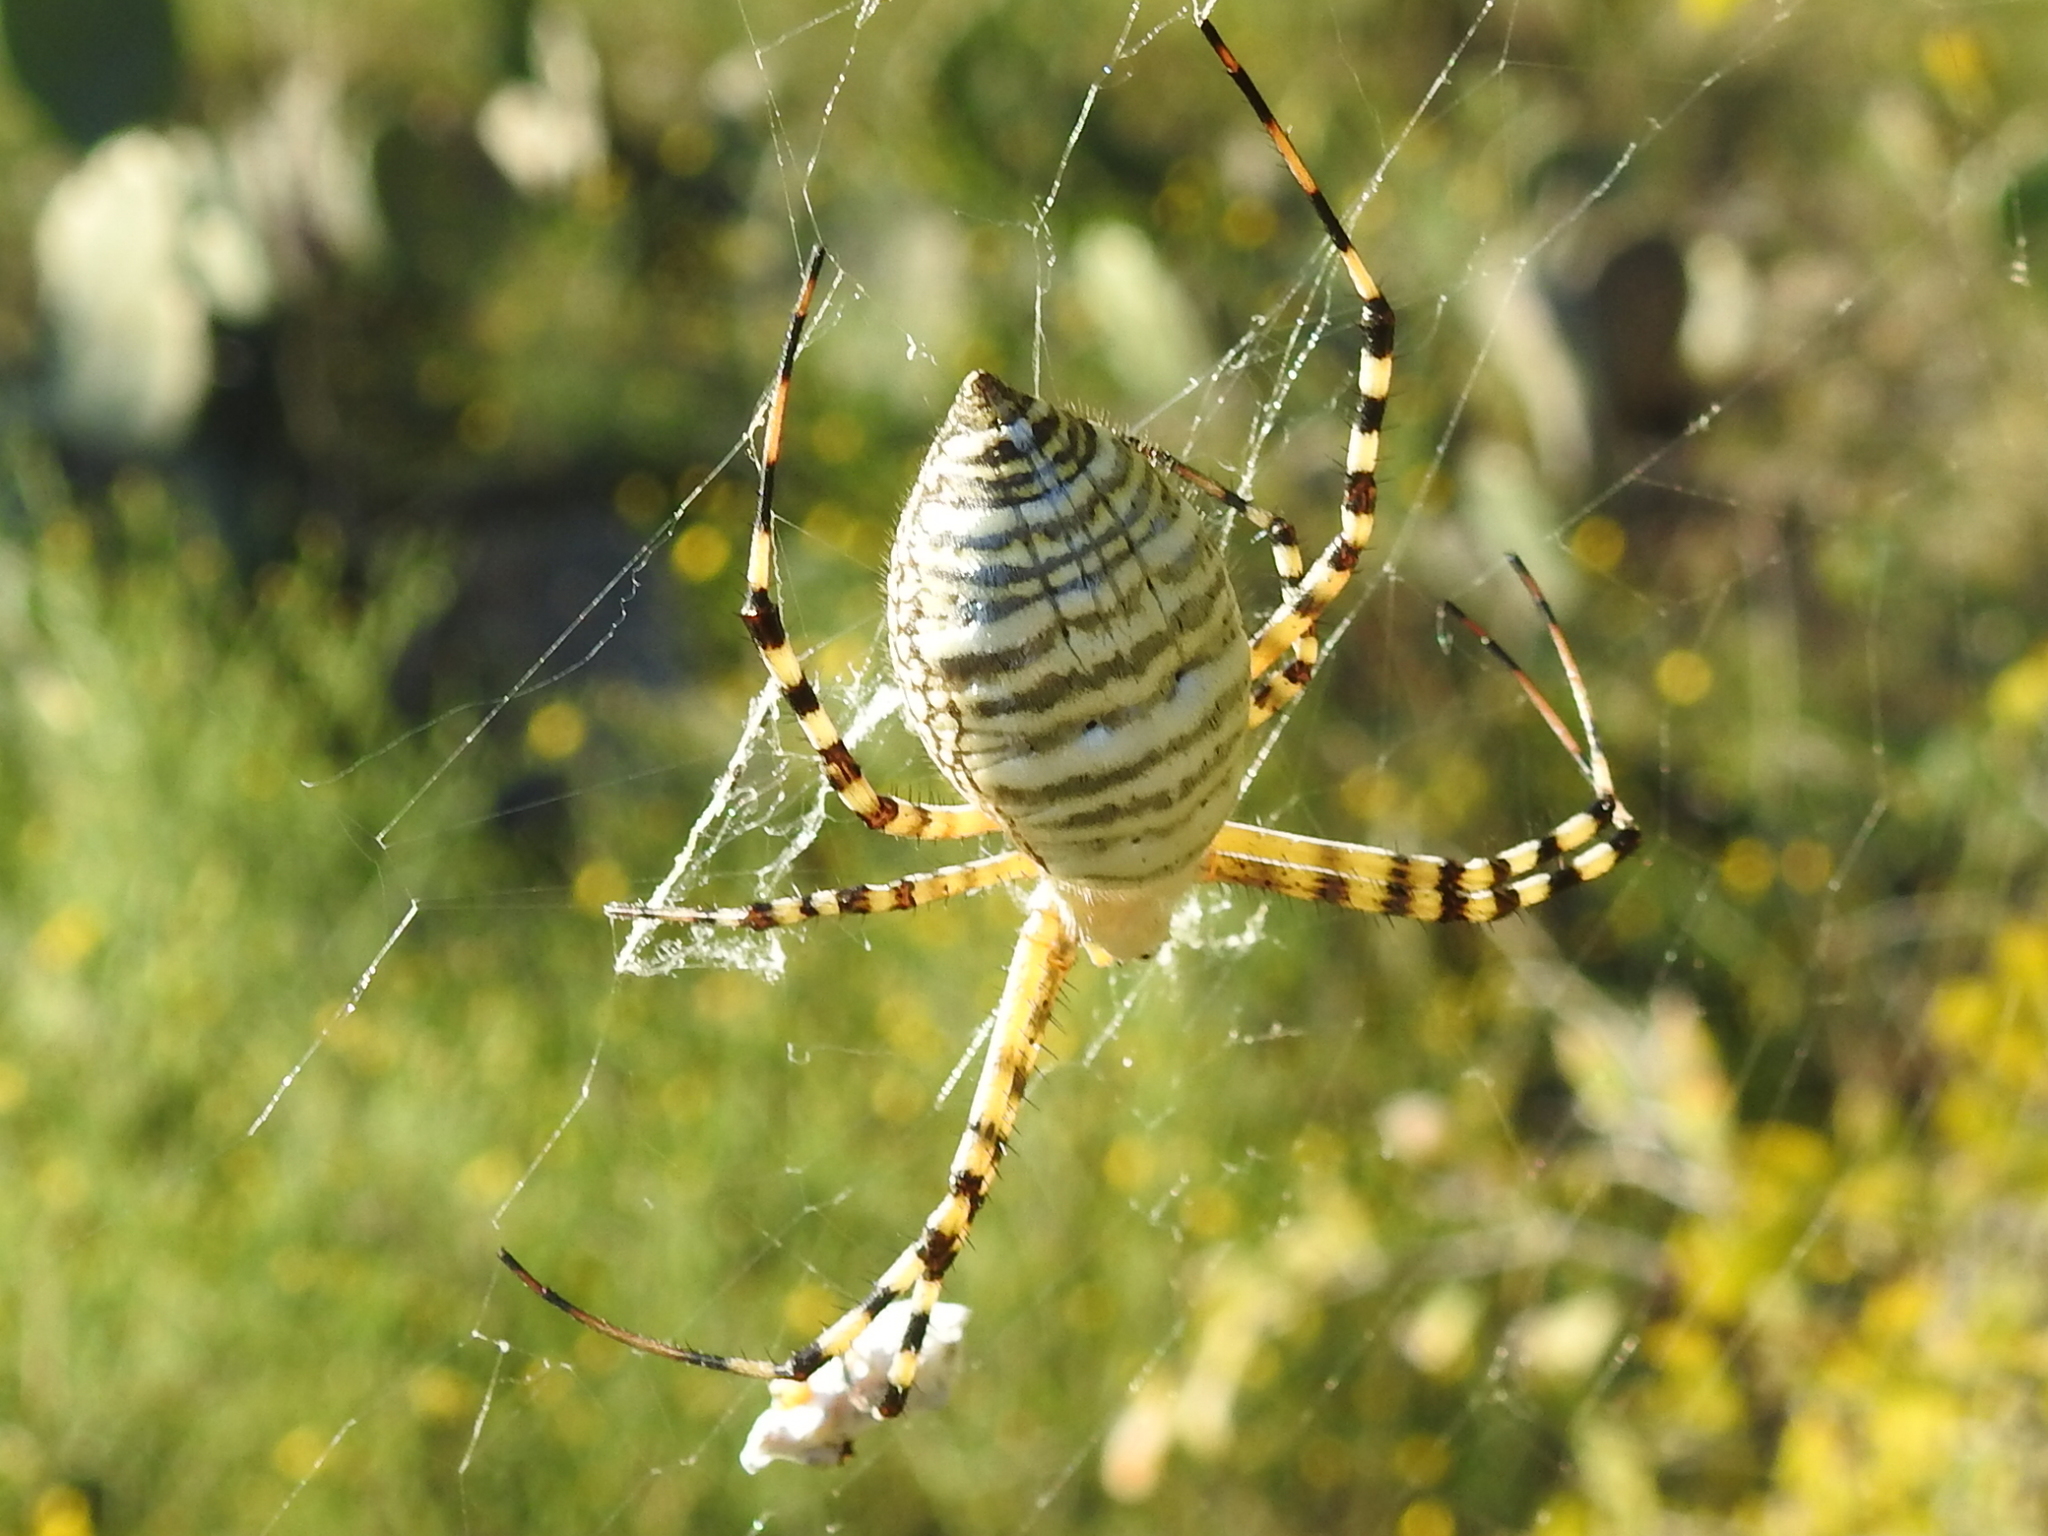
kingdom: Animalia
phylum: Arthropoda
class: Arachnida
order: Araneae
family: Araneidae
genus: Argiope
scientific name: Argiope trifasciata
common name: Banded garden spider
